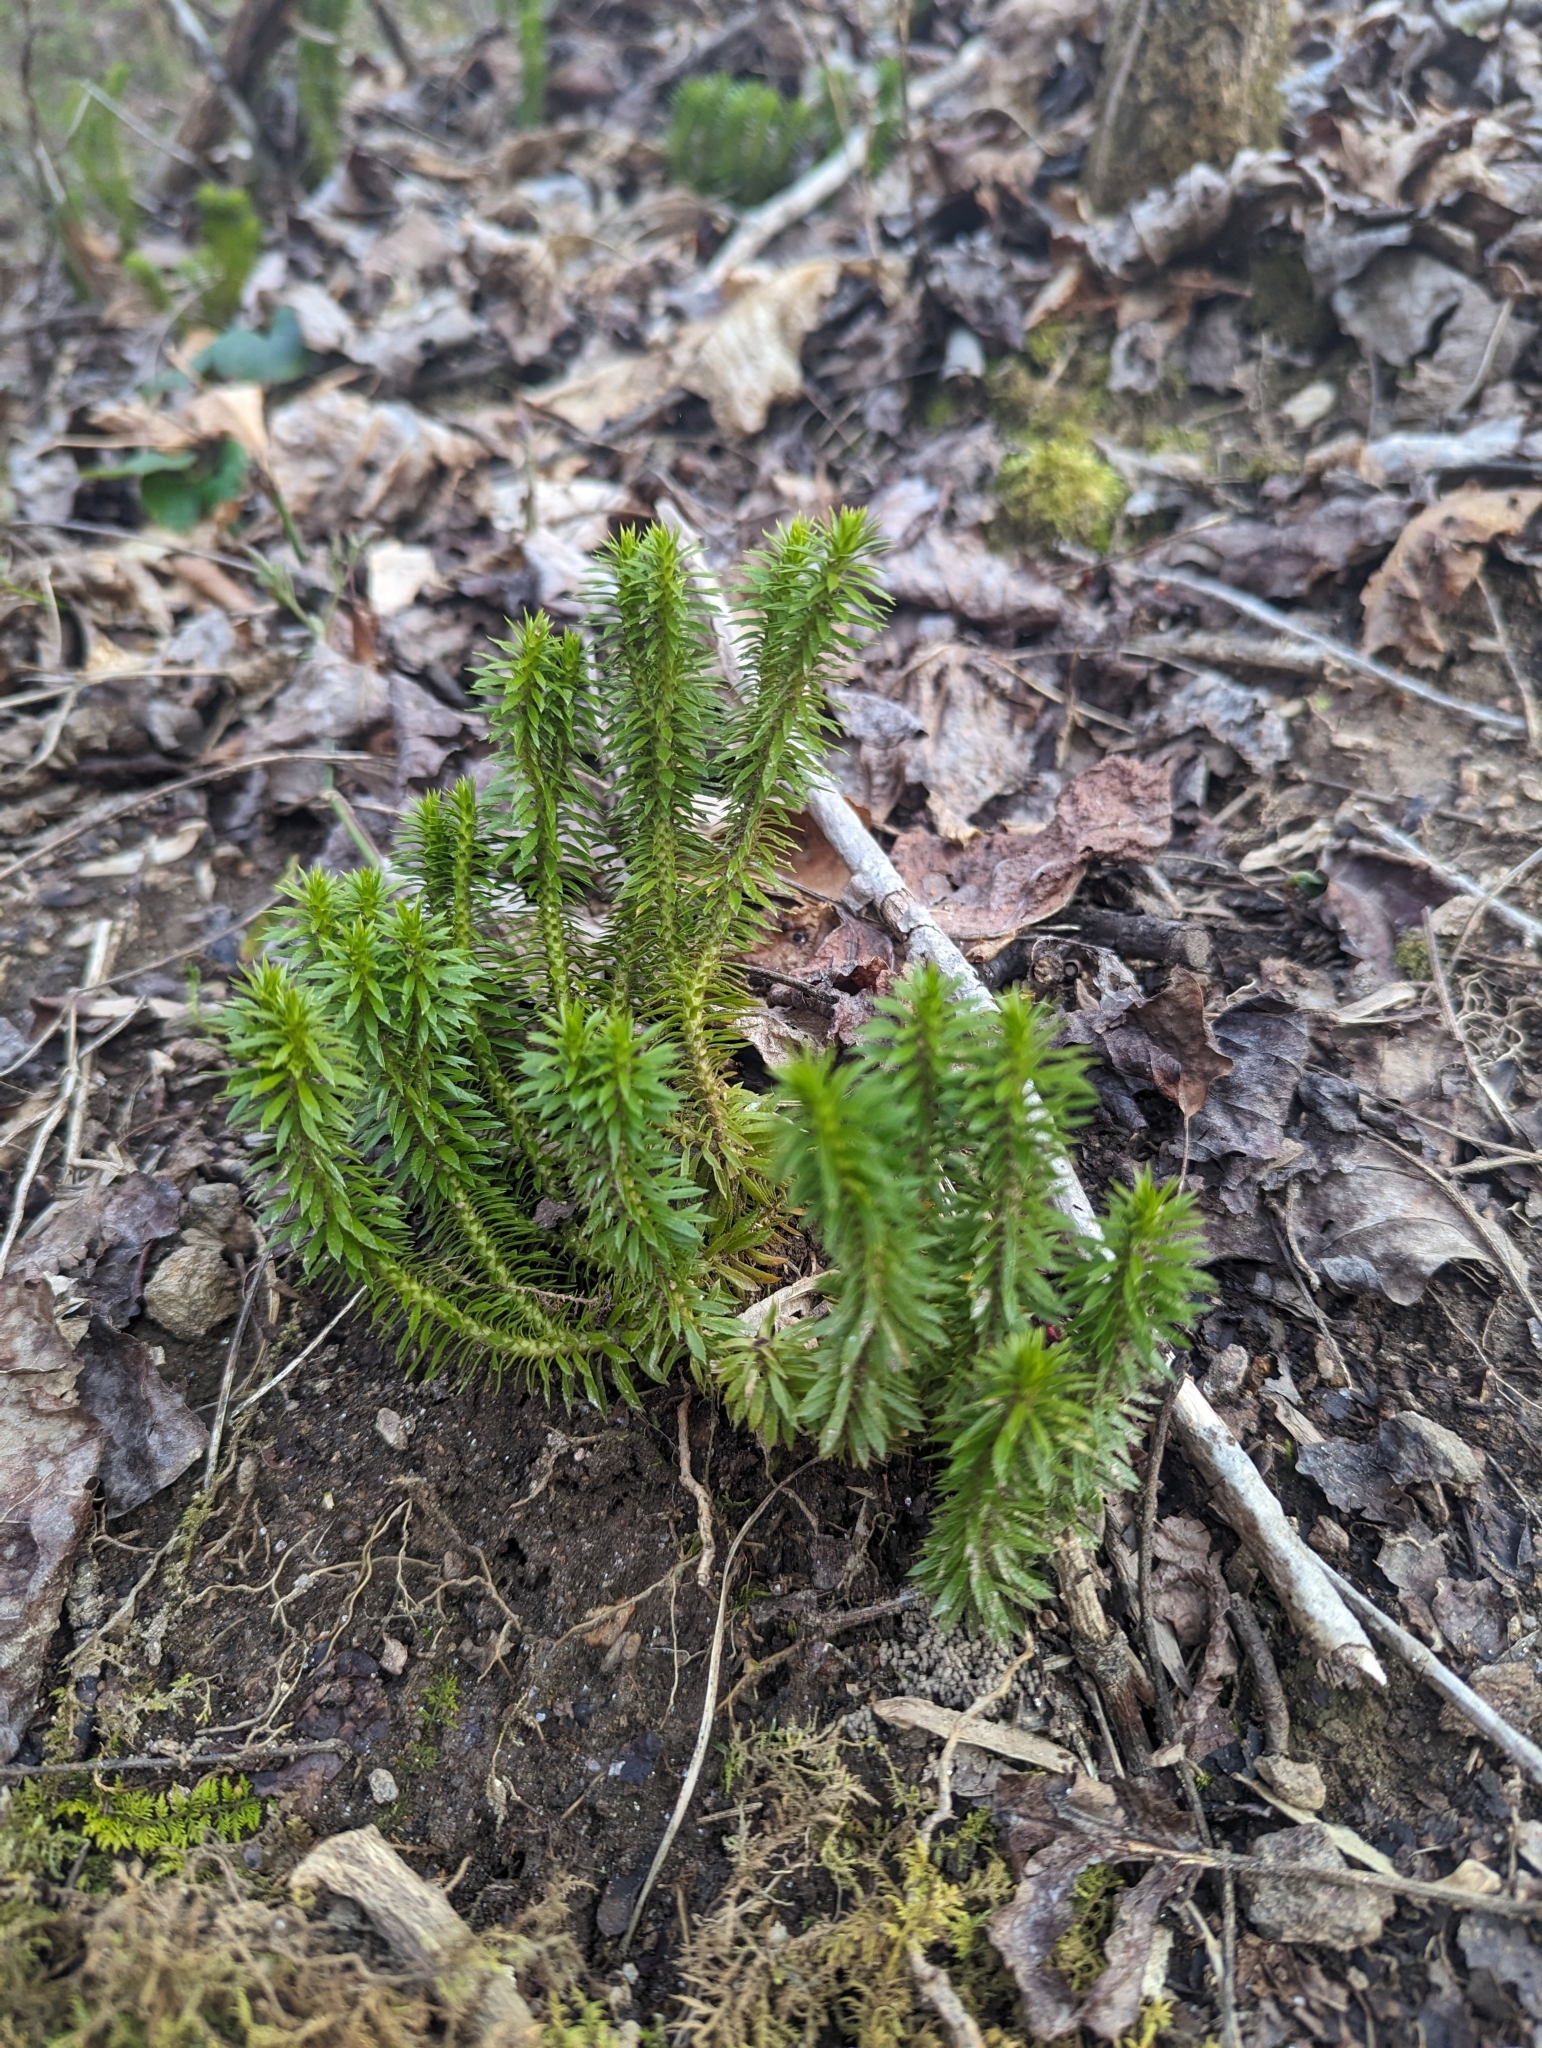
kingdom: Plantae
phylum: Tracheophyta
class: Lycopodiopsida
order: Lycopodiales
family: Lycopodiaceae
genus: Huperzia
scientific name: Huperzia lucidula
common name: Shining clubmoss
